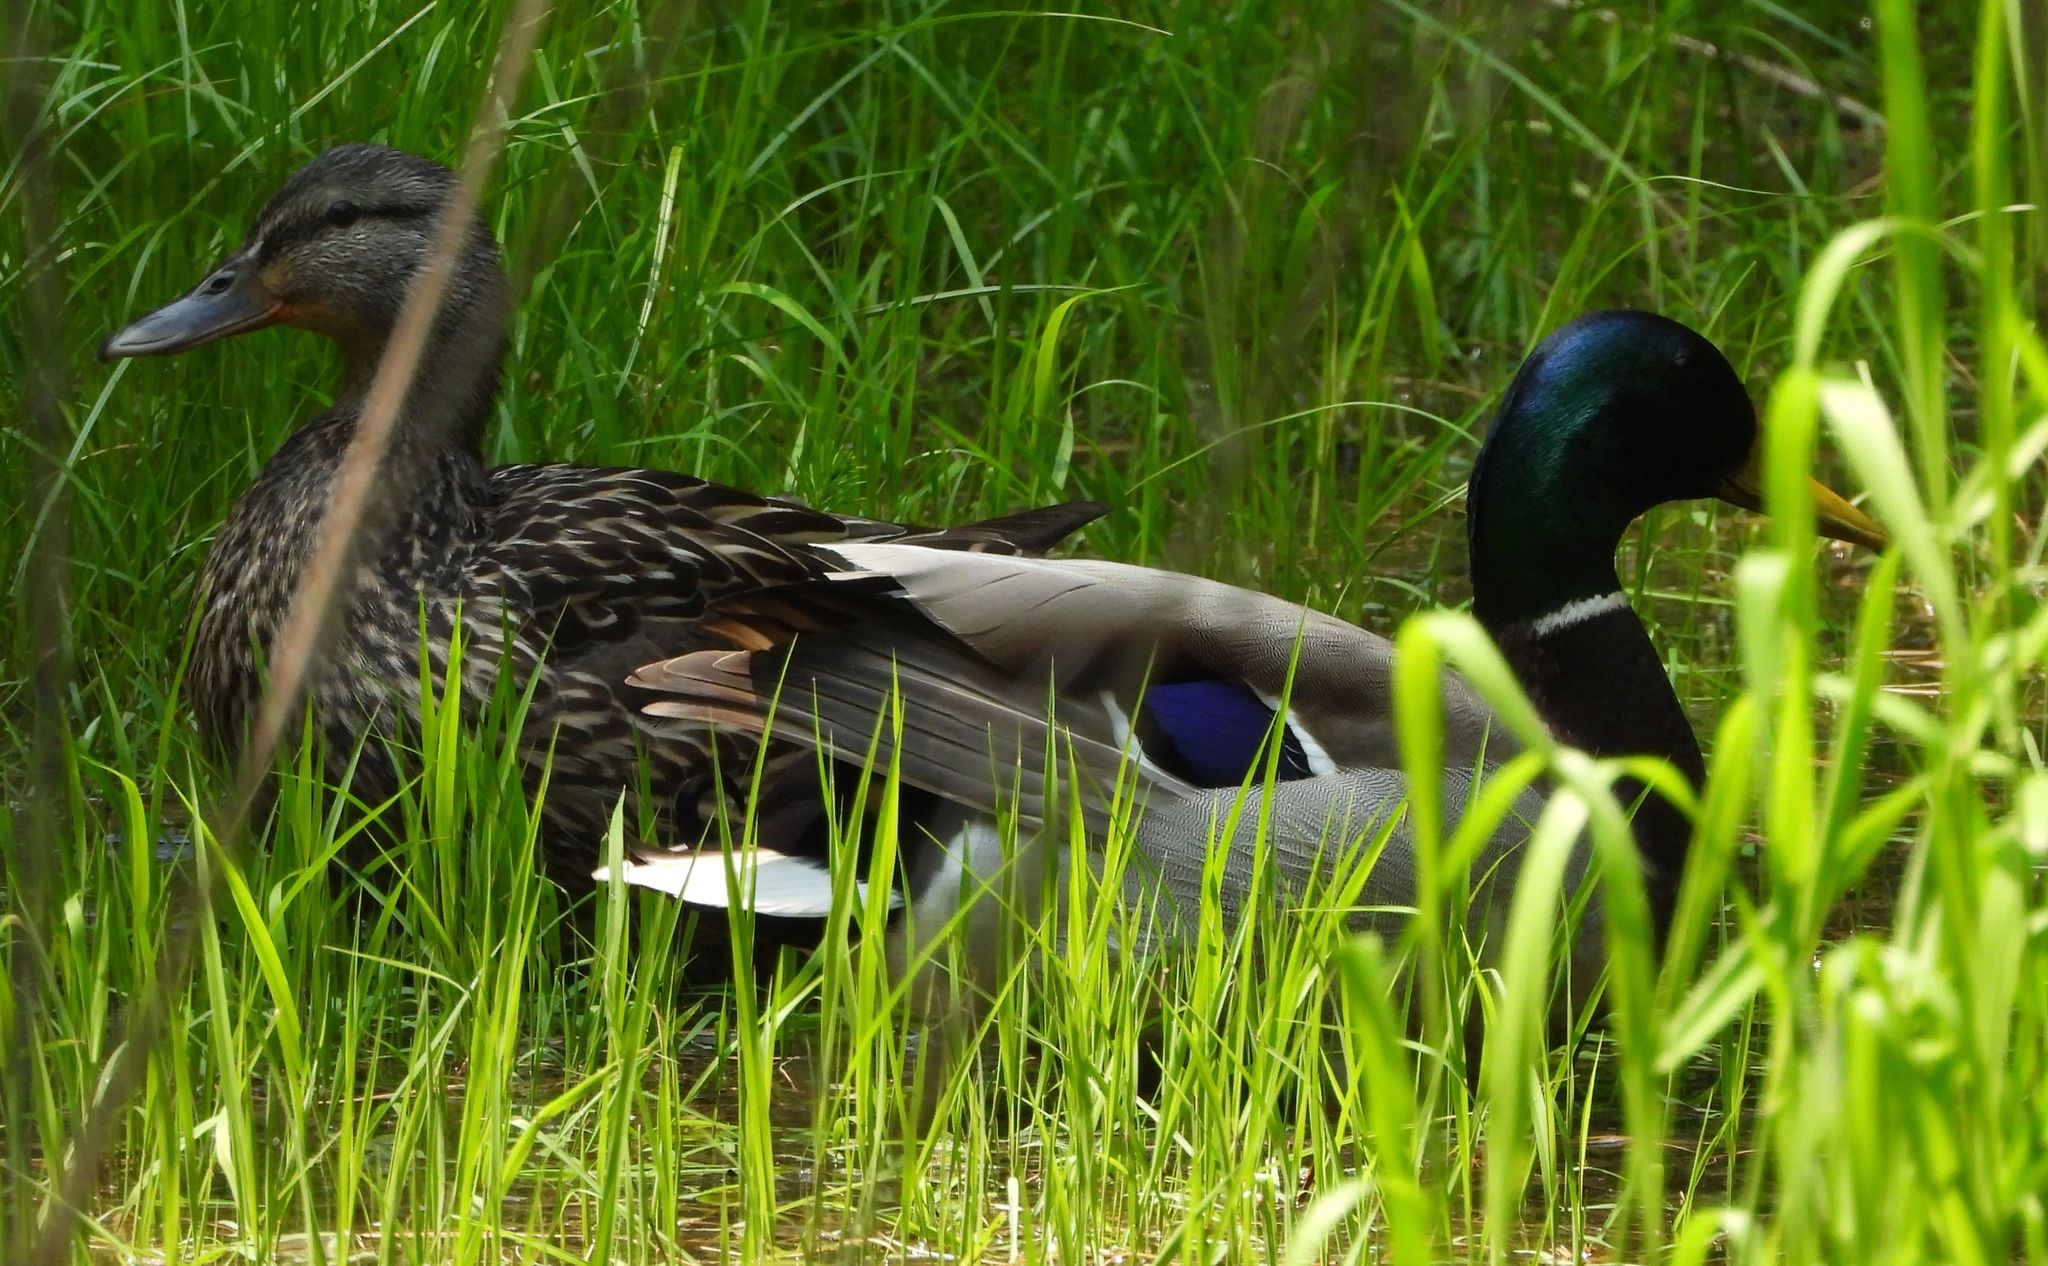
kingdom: Animalia
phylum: Chordata
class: Aves
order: Anseriformes
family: Anatidae
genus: Anas
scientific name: Anas platyrhynchos
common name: Mallard
